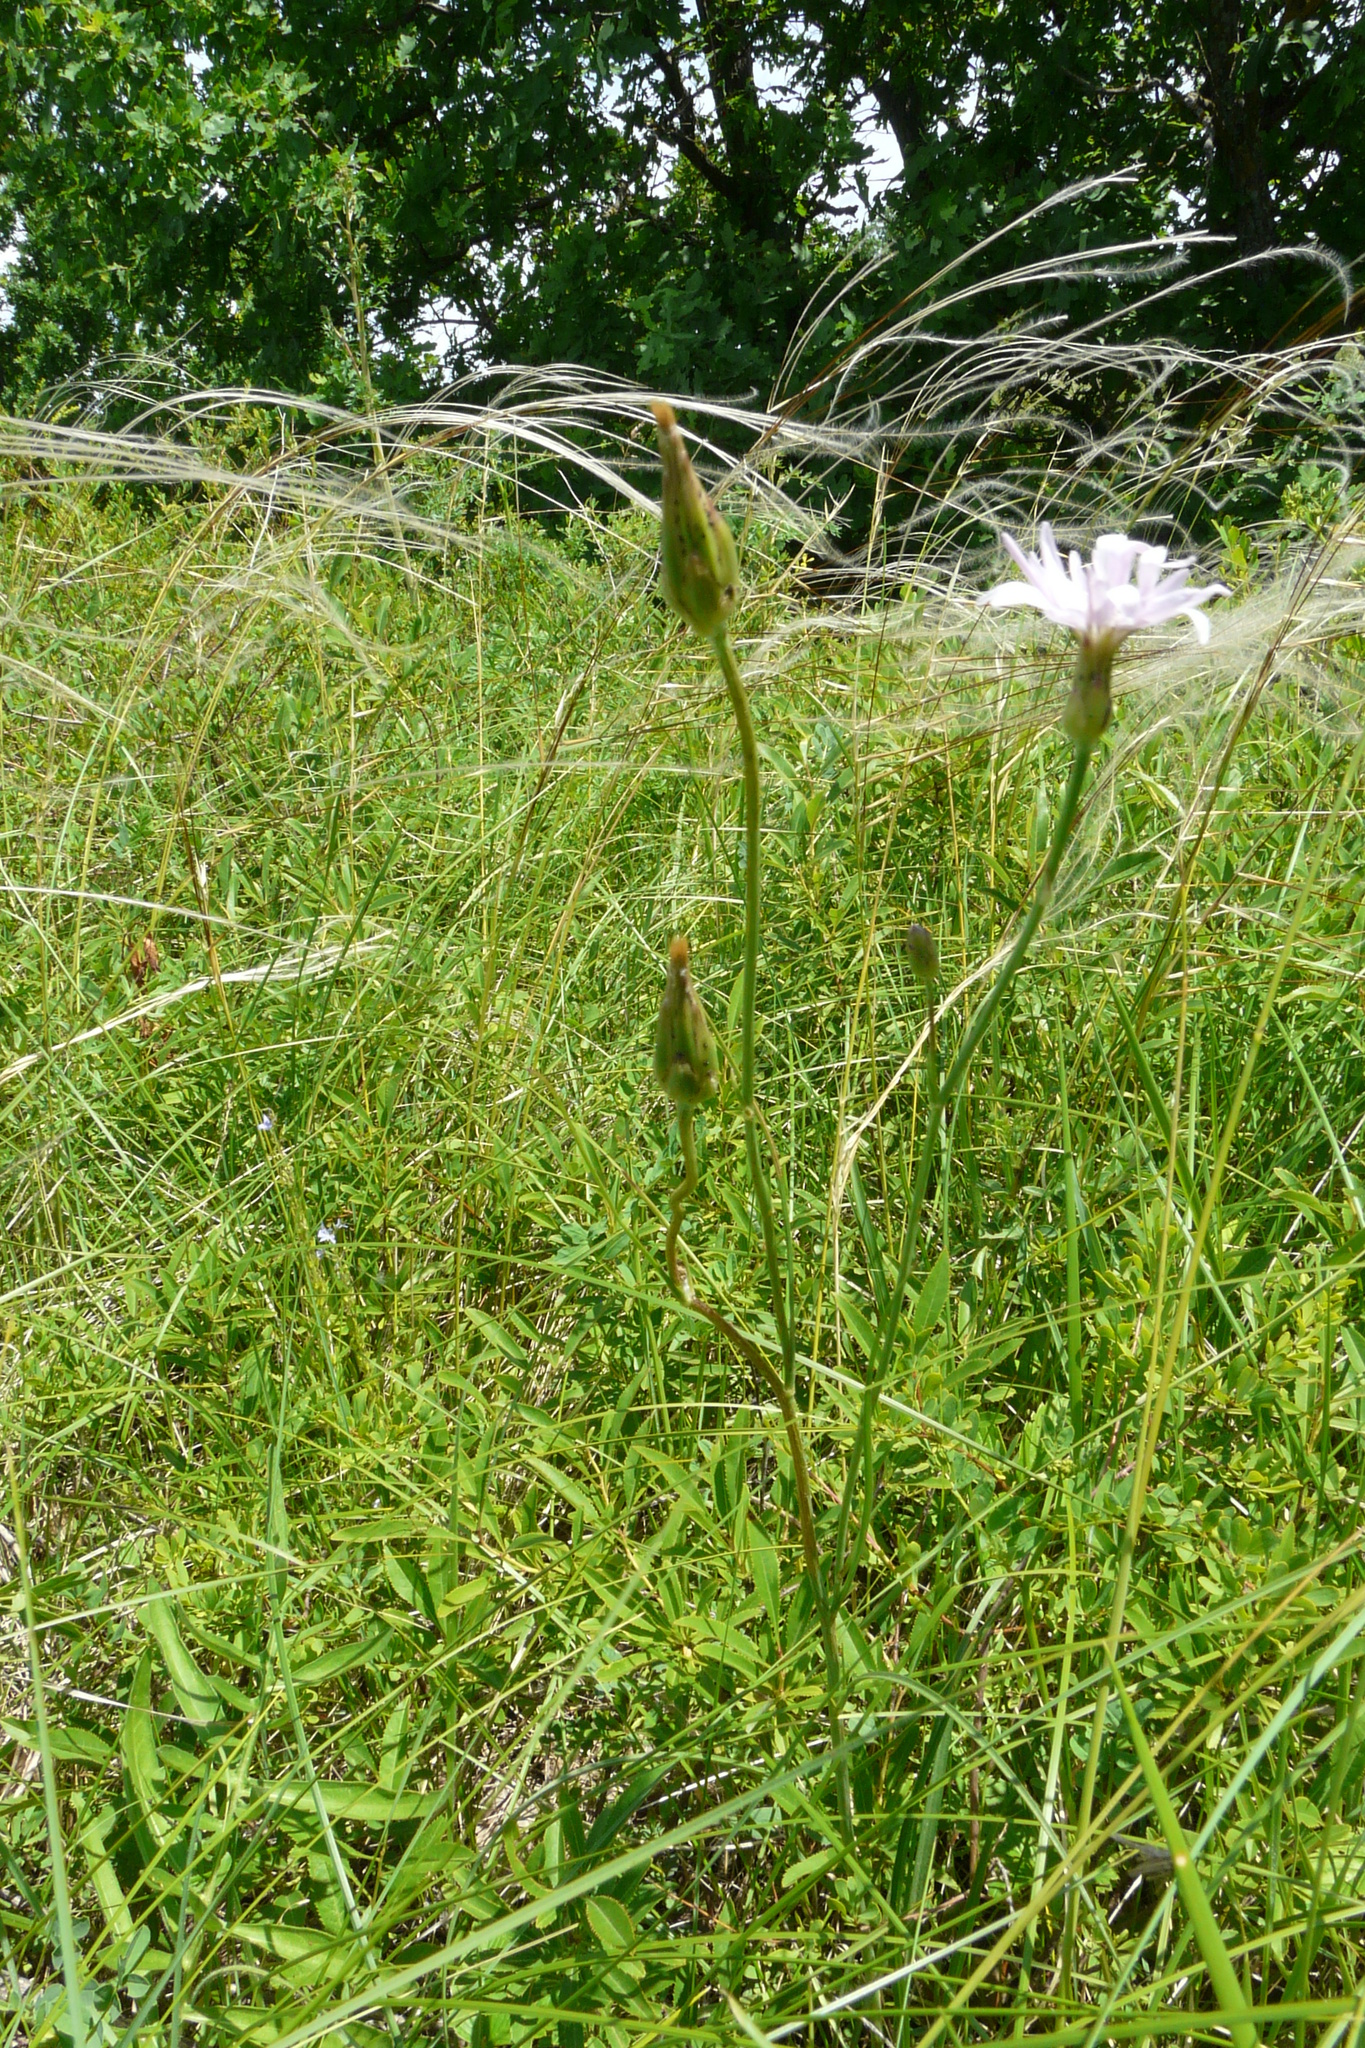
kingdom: Plantae
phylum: Tracheophyta
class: Magnoliopsida
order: Asterales
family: Asteraceae
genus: Scorzonera
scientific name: Scorzonera purpurea
